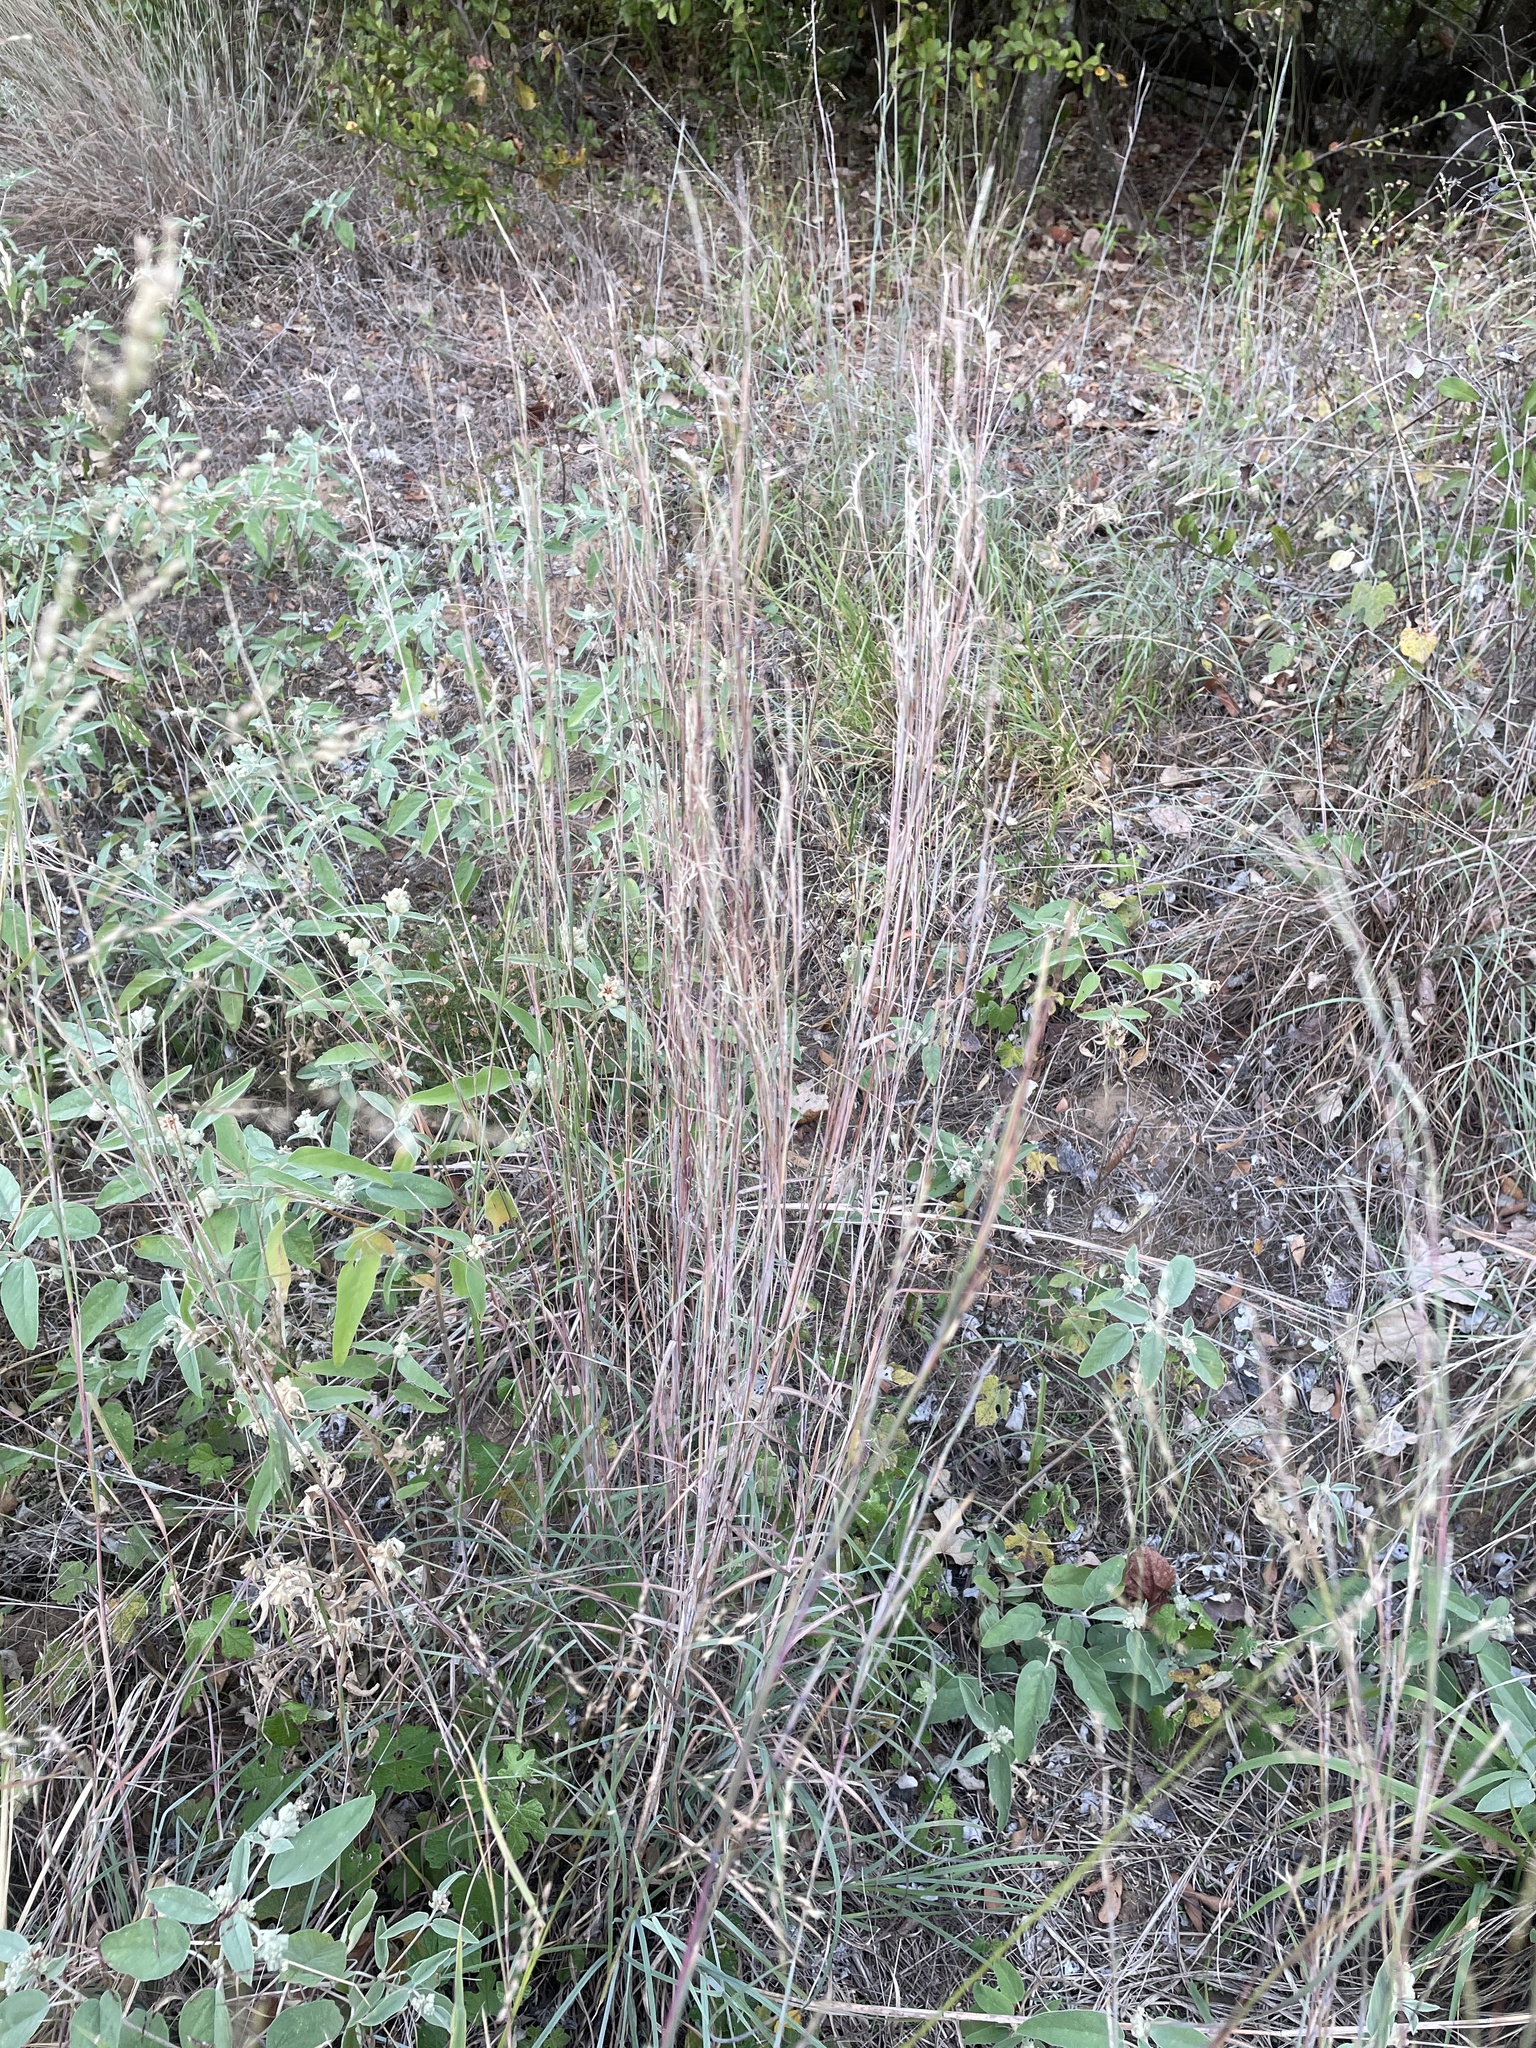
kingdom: Plantae
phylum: Tracheophyta
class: Liliopsida
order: Poales
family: Poaceae
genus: Schizachyrium
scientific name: Schizachyrium scoparium
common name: Little bluestem
